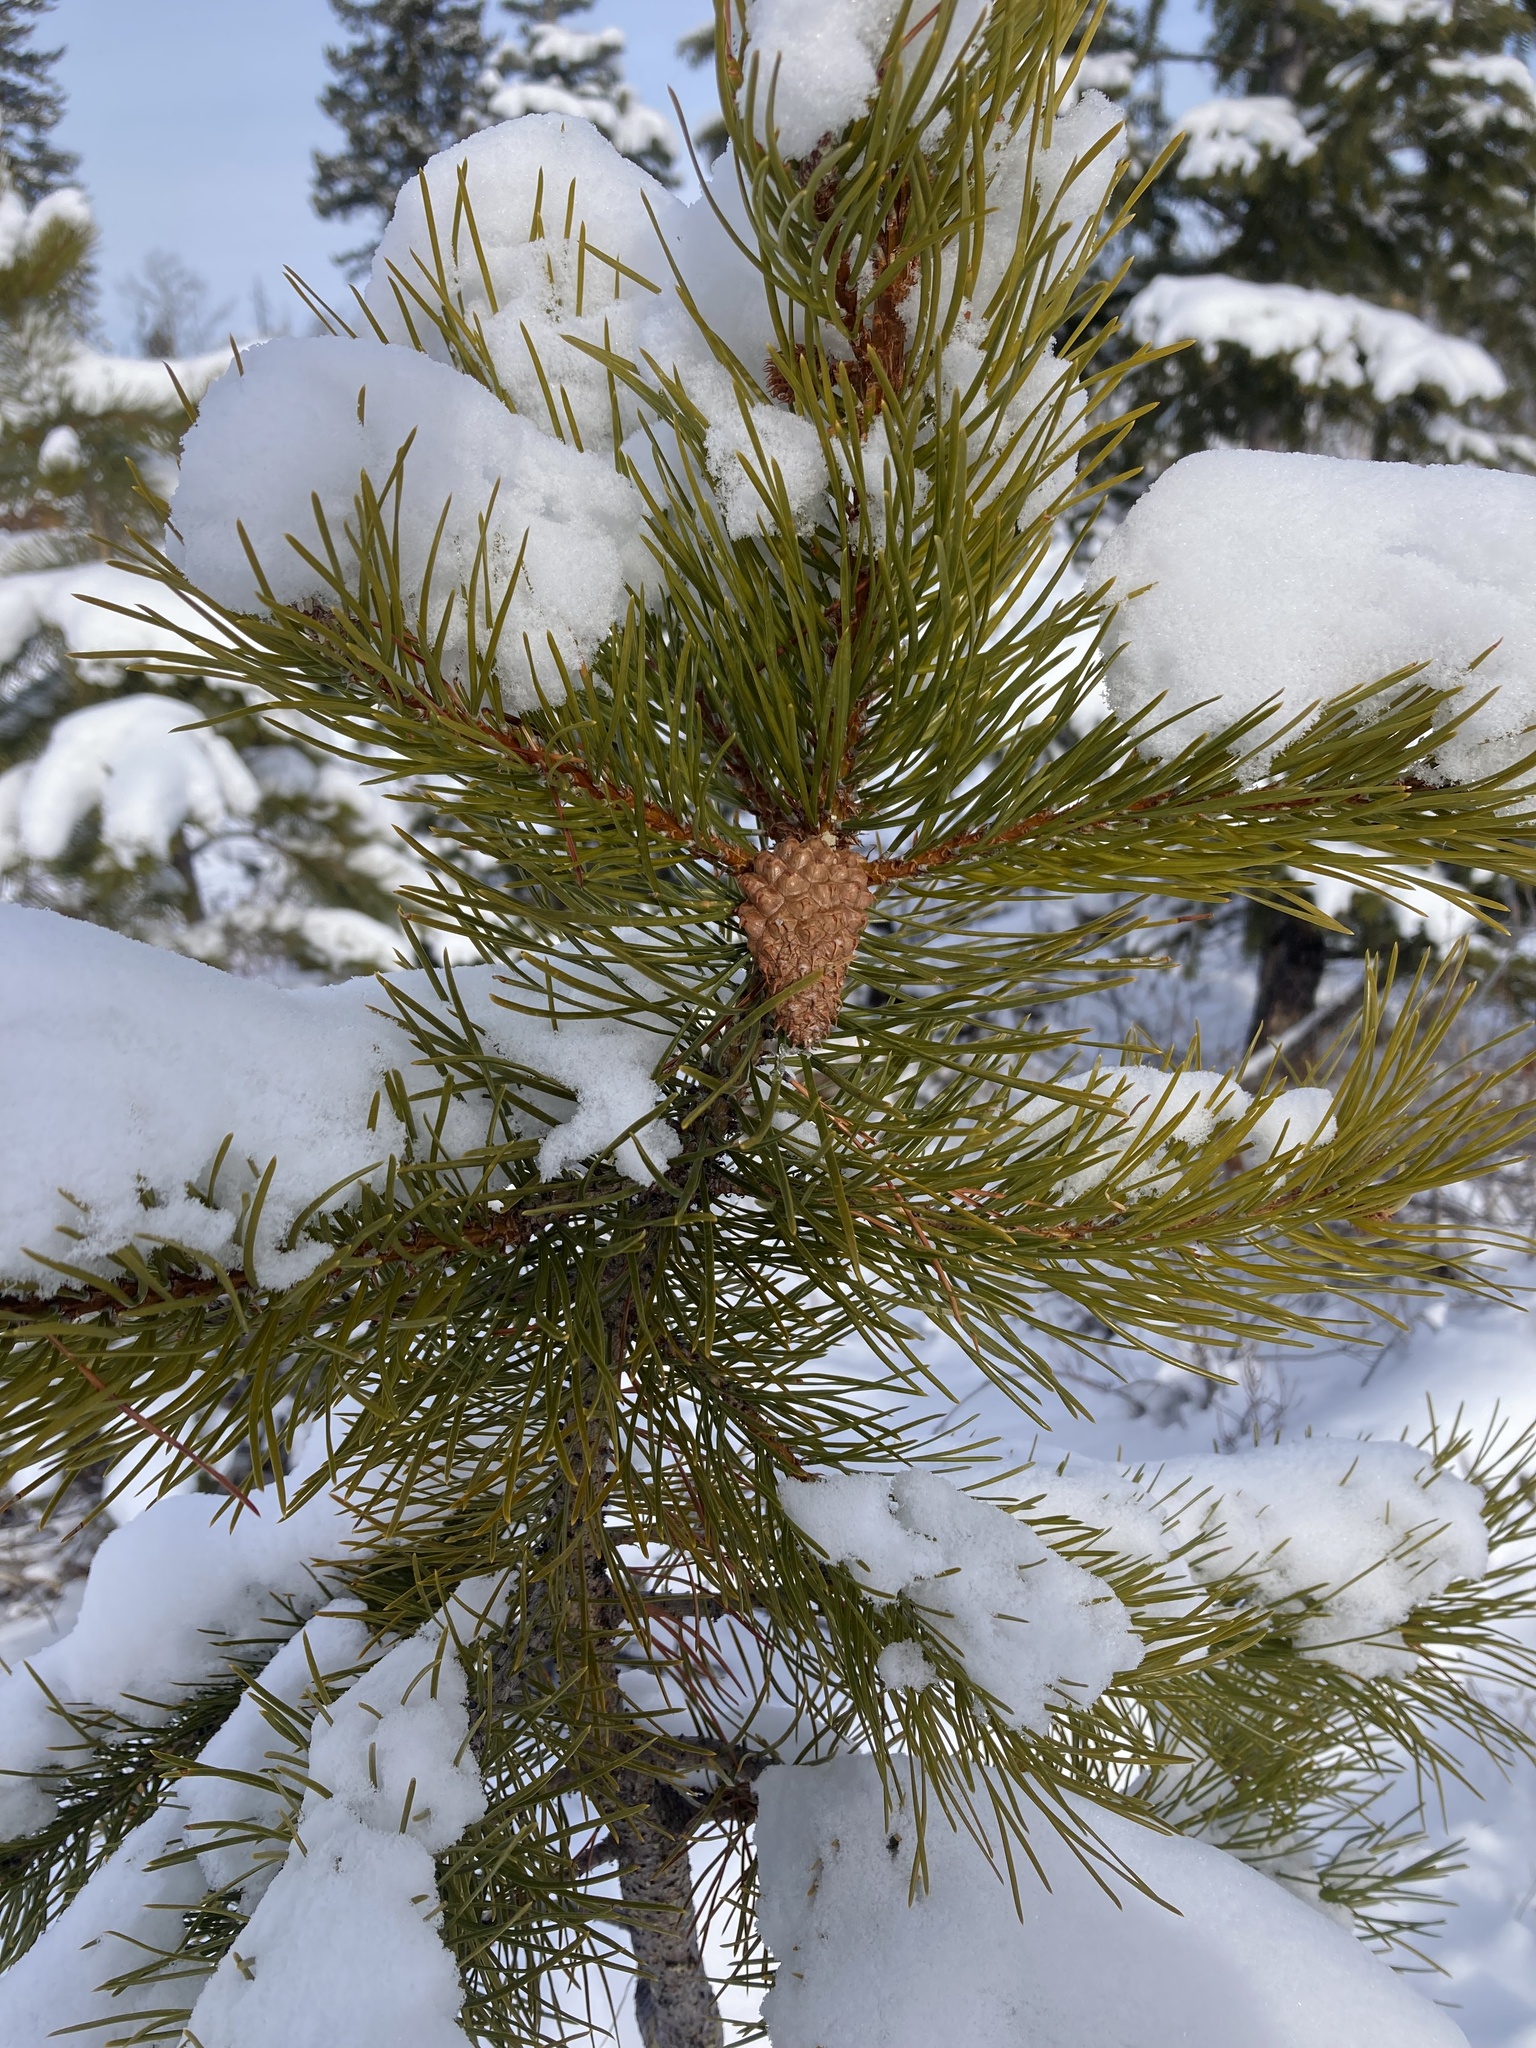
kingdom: Plantae
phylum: Tracheophyta
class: Pinopsida
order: Pinales
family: Pinaceae
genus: Pinus
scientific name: Pinus contorta
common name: Lodgepole pine
